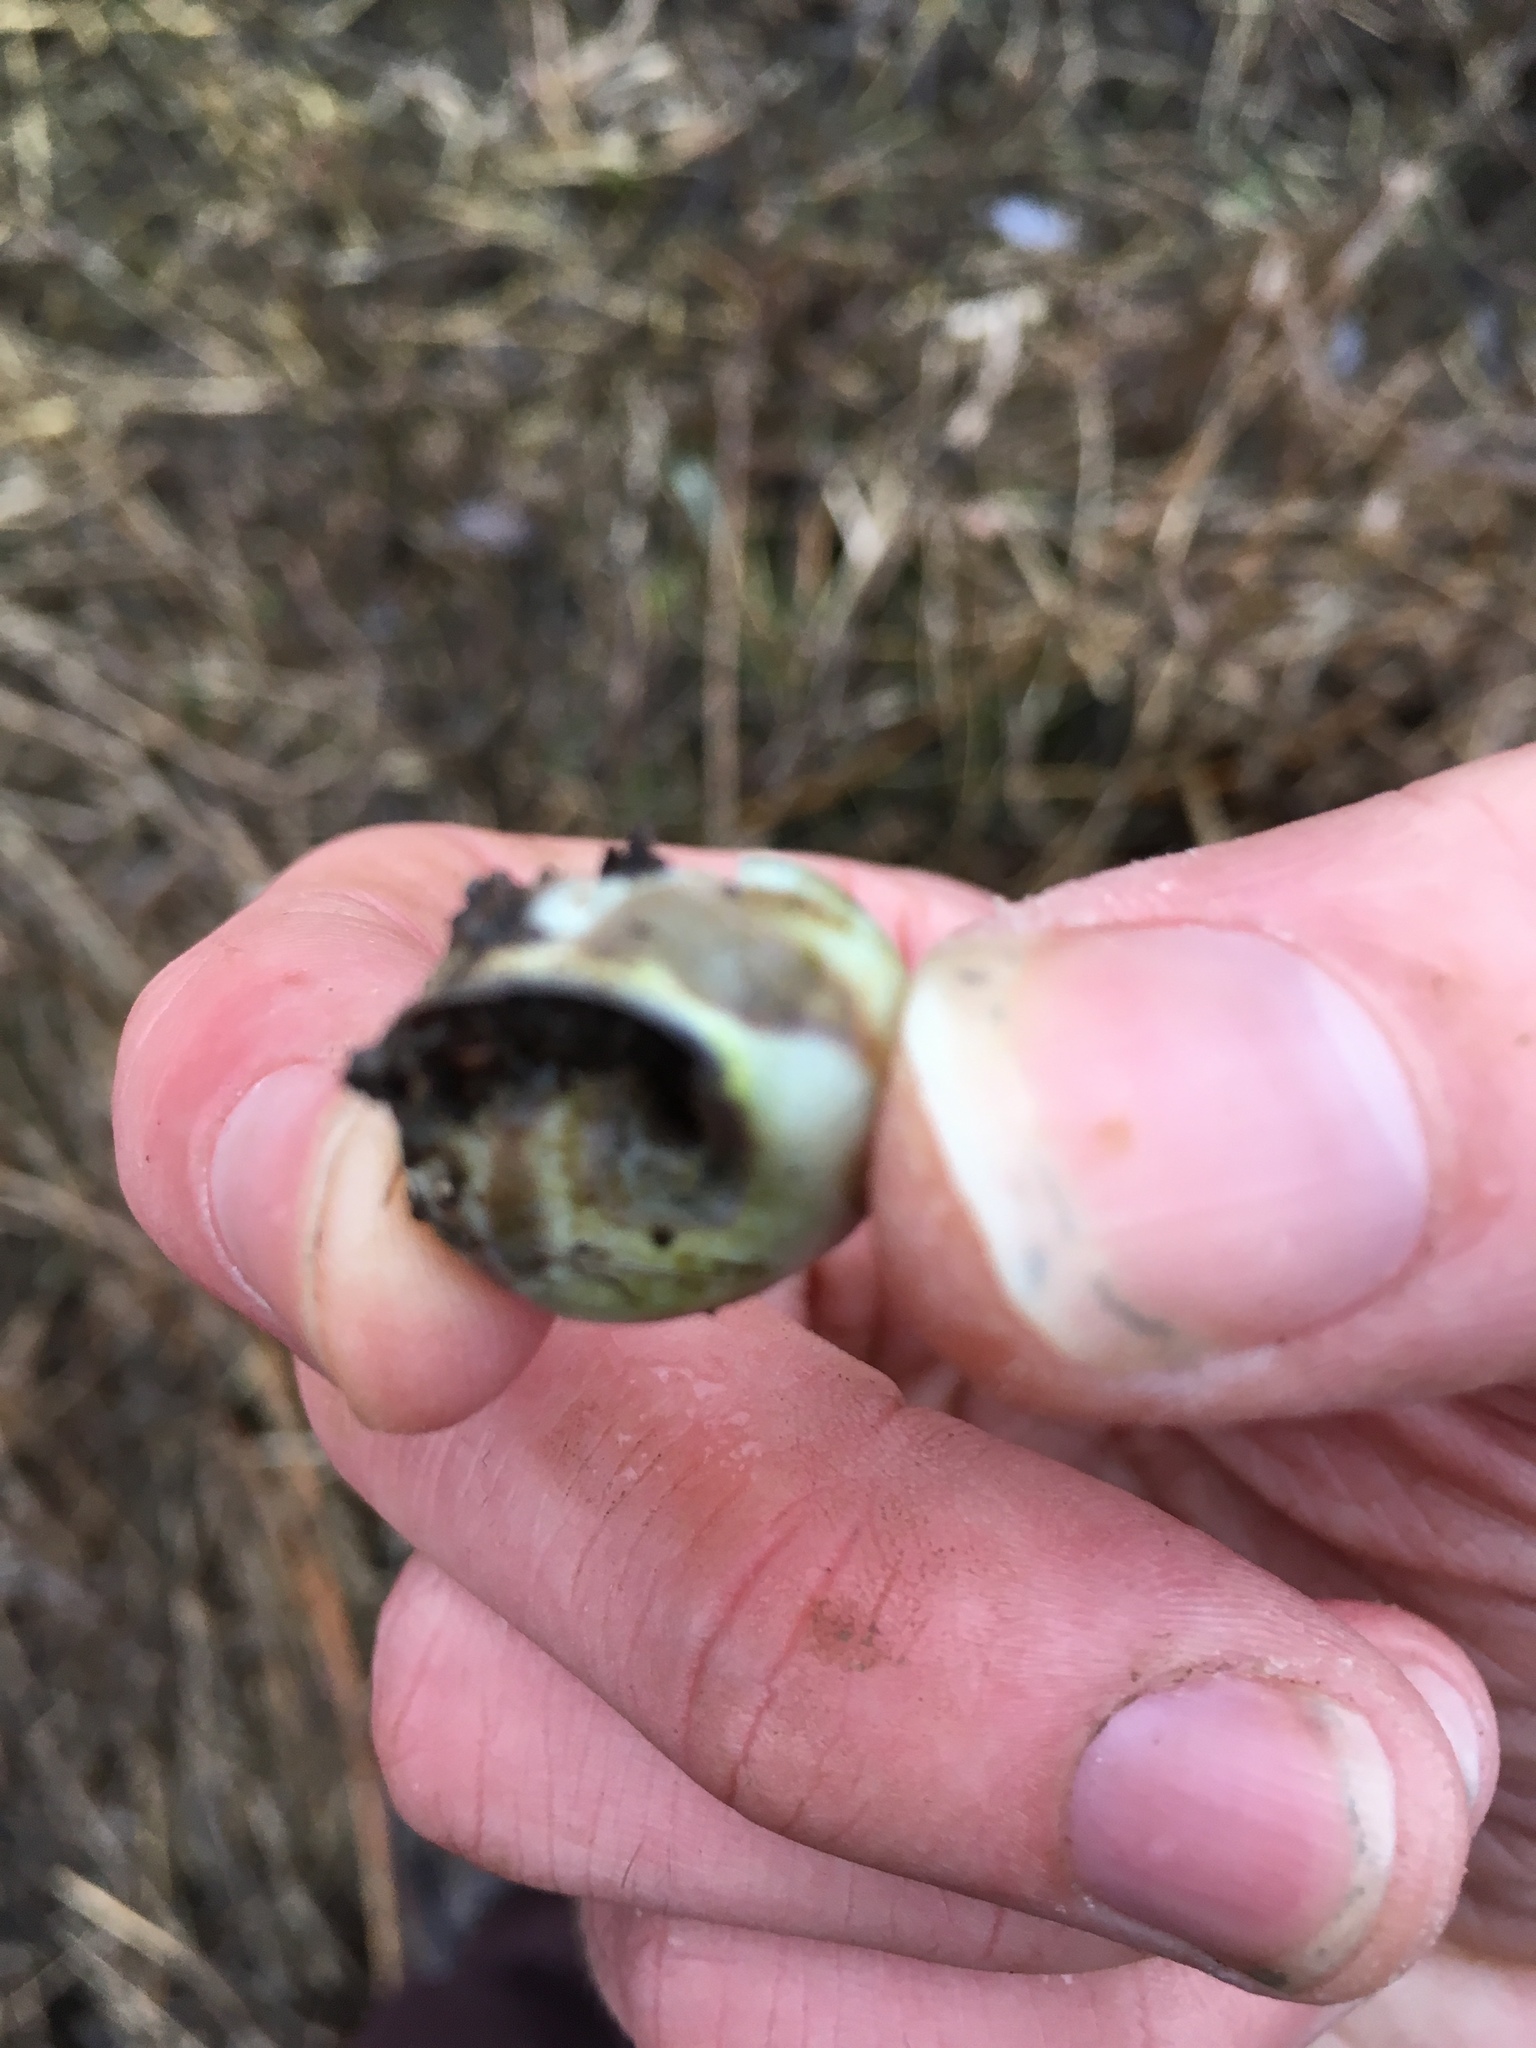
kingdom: Animalia
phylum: Mollusca
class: Gastropoda
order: Stylommatophora
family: Helicidae
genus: Cepaea
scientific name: Cepaea nemoralis
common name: Grovesnail
